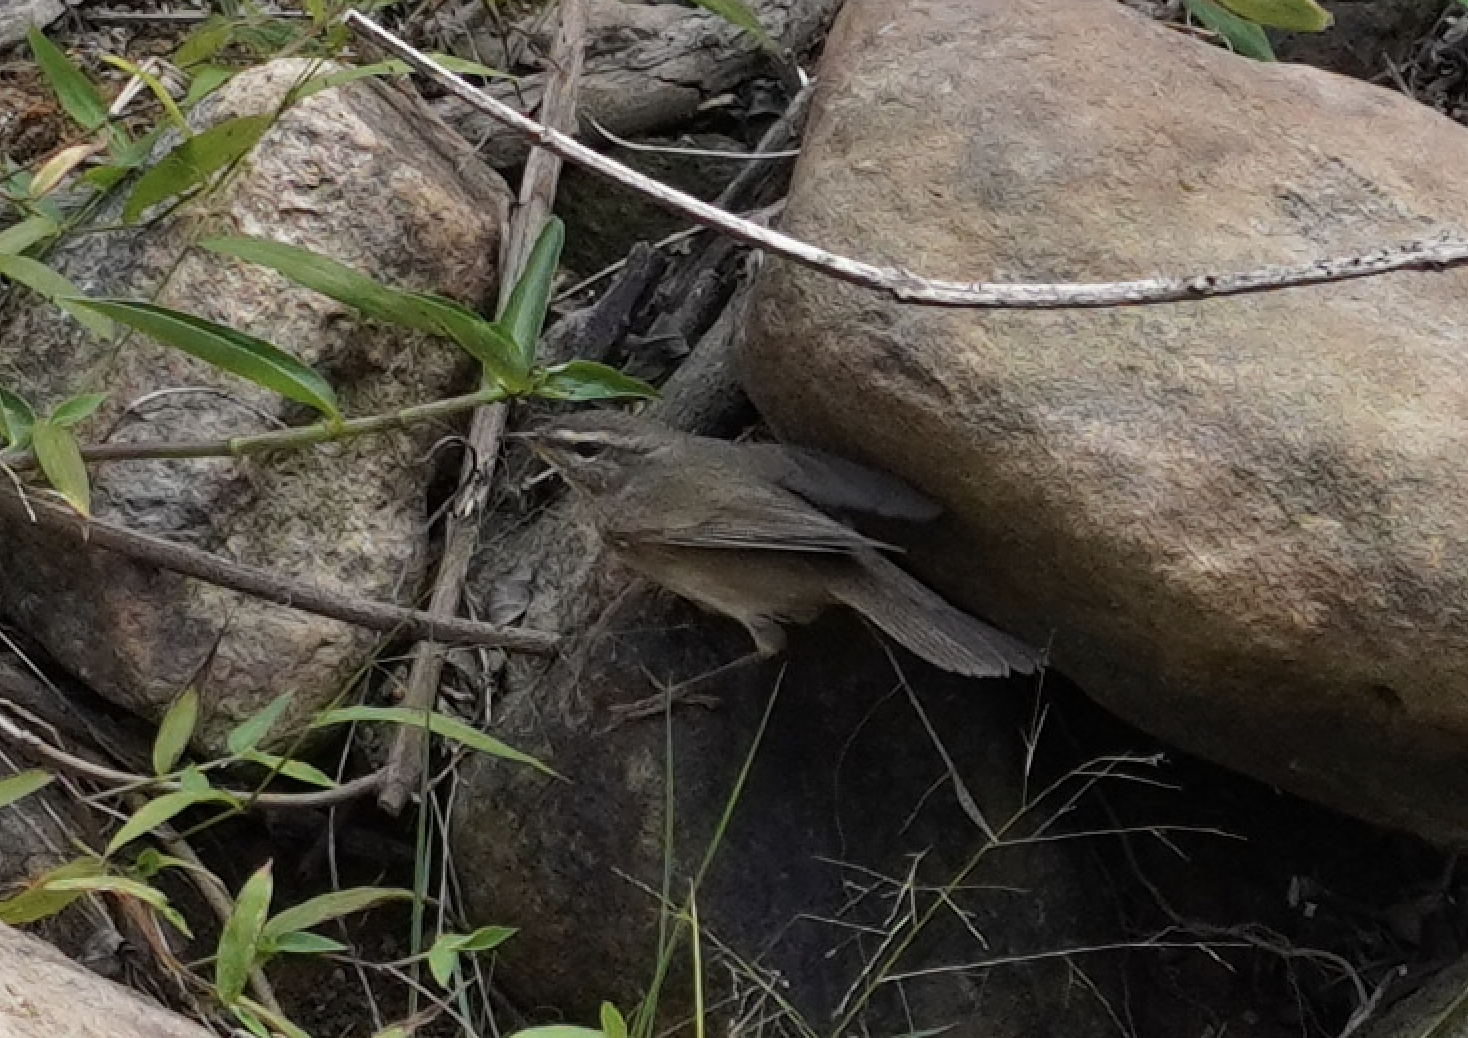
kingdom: Animalia
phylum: Chordata
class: Aves
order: Passeriformes
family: Phylloscopidae
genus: Phylloscopus
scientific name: Phylloscopus fuscatus
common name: Dusky warbler
